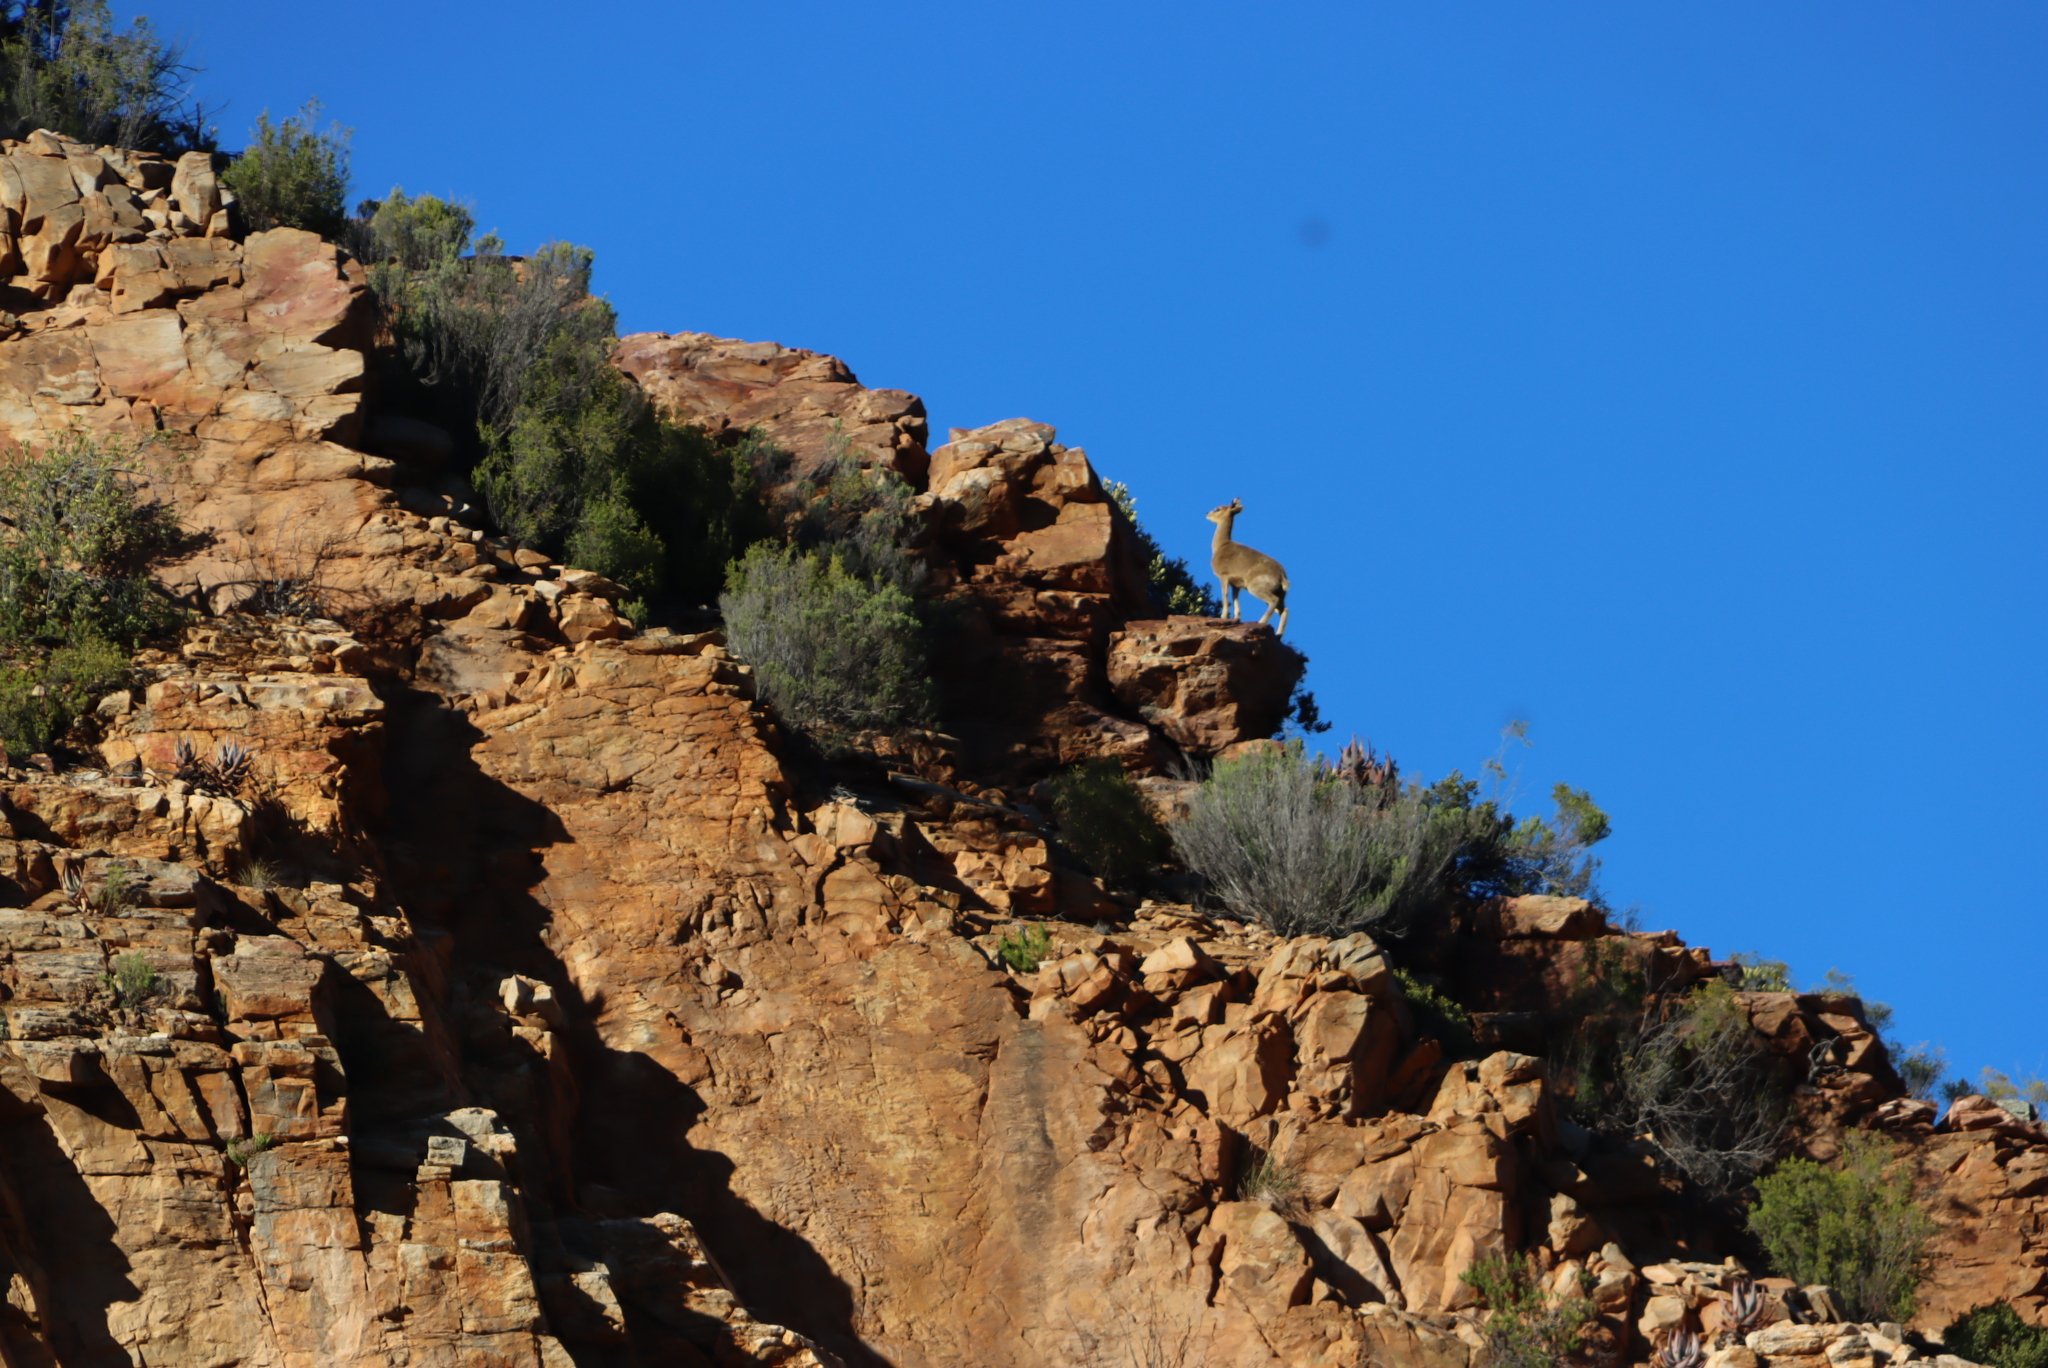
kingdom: Animalia
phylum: Chordata
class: Mammalia
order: Artiodactyla
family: Bovidae
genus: Oreotragus
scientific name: Oreotragus oreotragus
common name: Klipspringer
